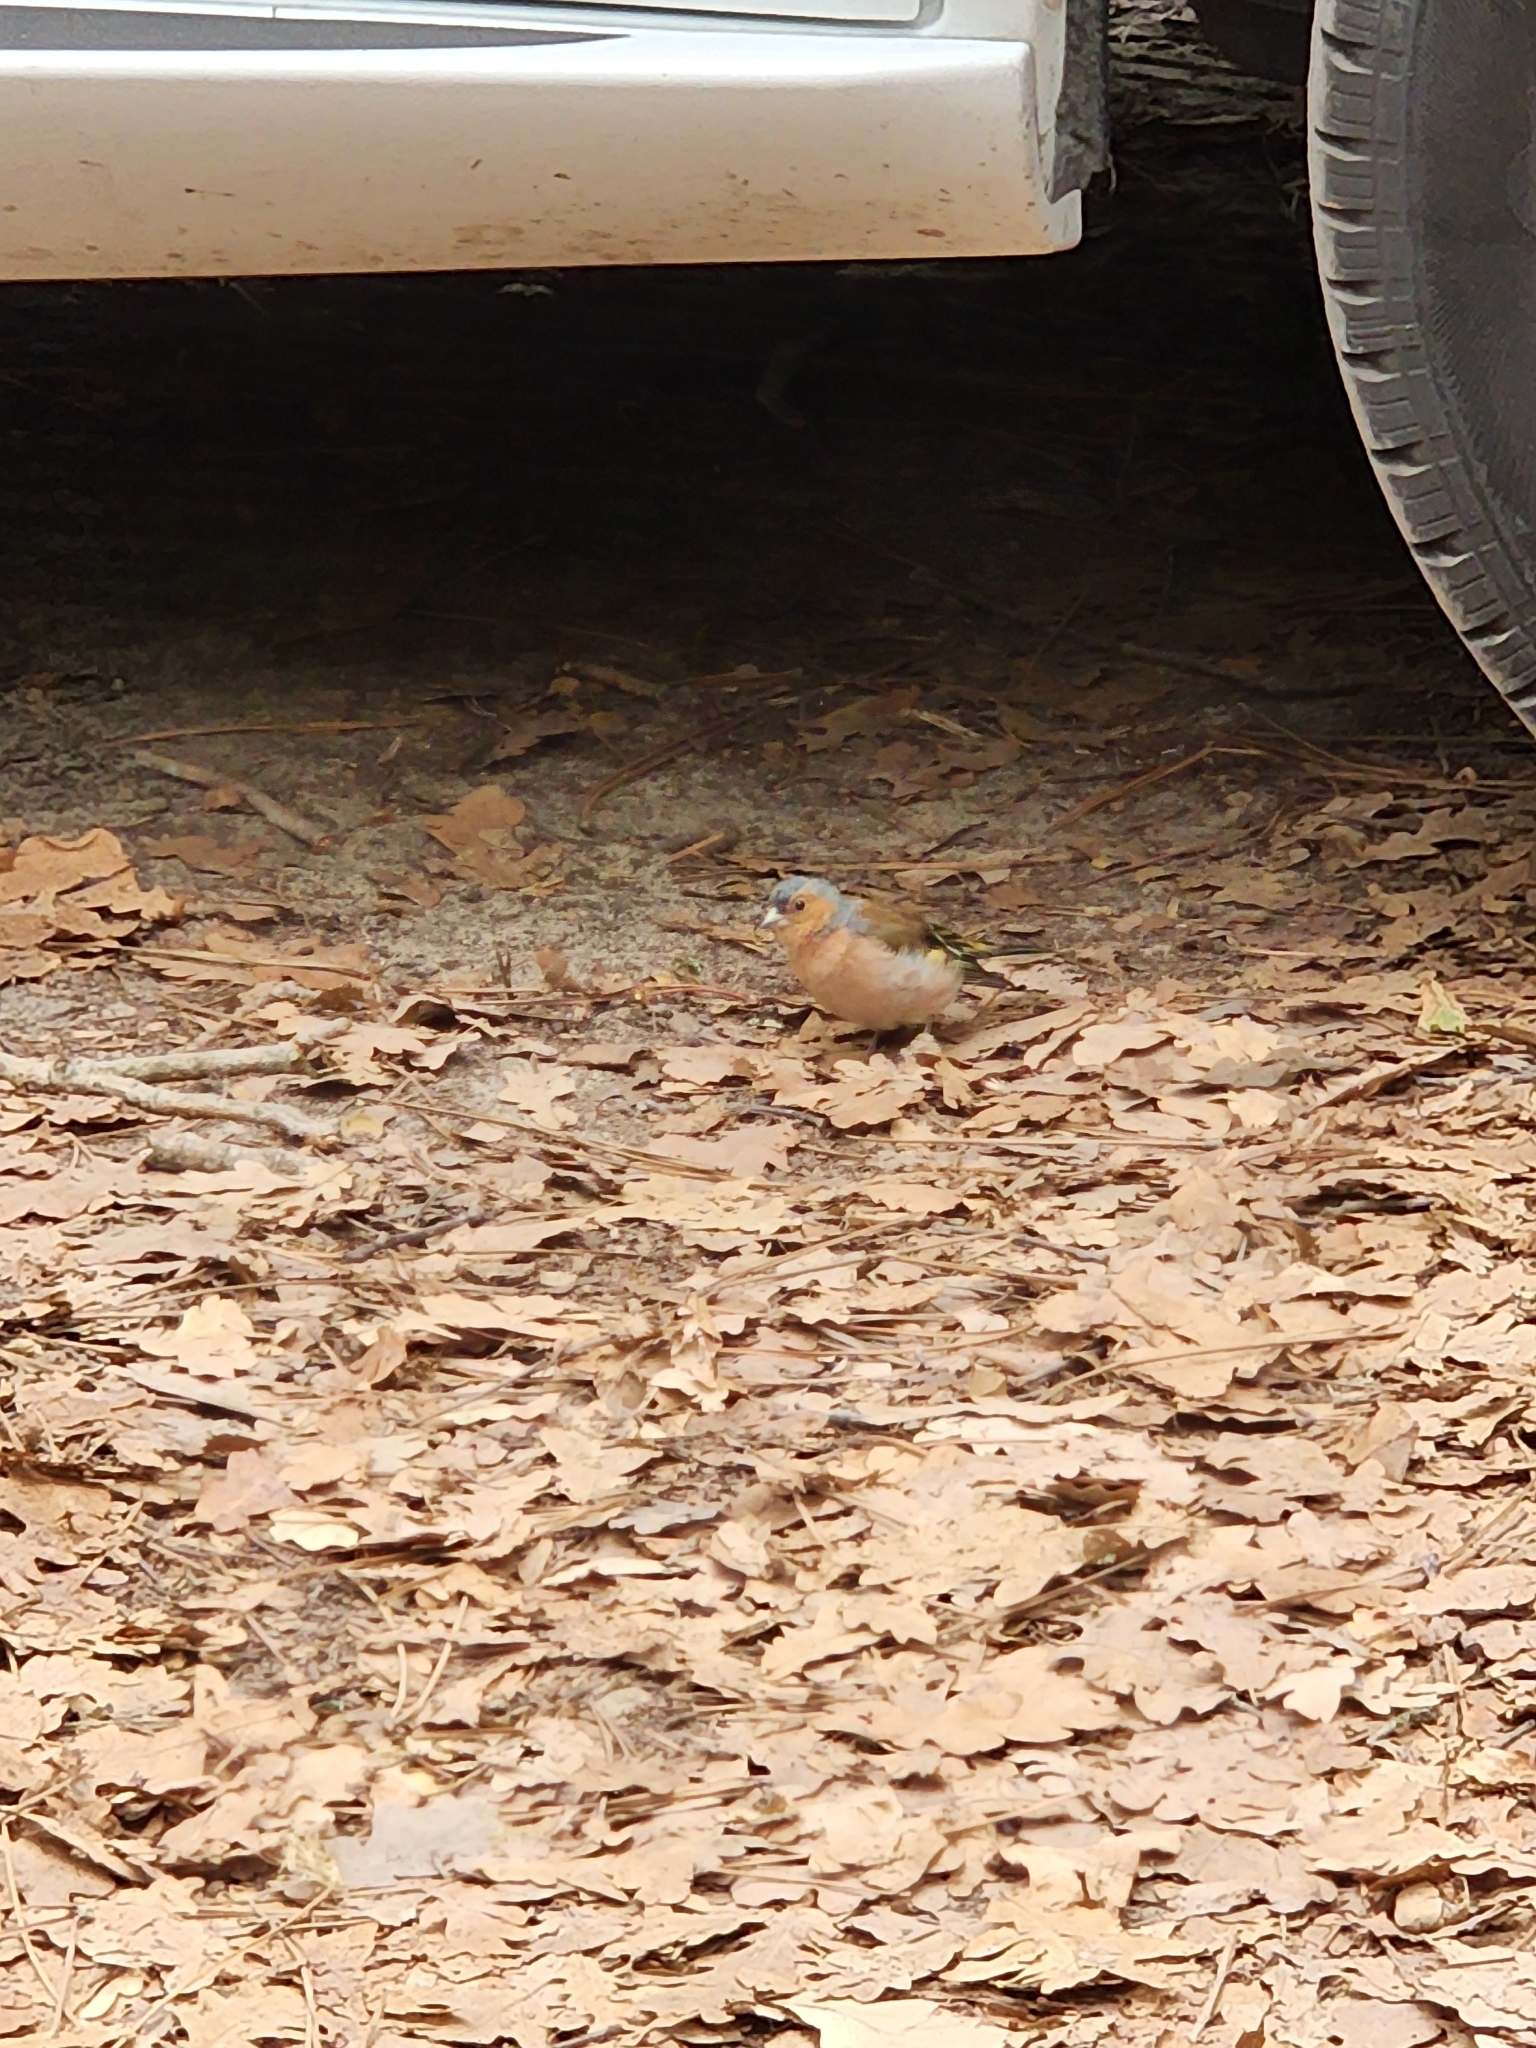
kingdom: Animalia
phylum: Chordata
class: Aves
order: Passeriformes
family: Fringillidae
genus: Fringilla
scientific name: Fringilla coelebs
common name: Common chaffinch
